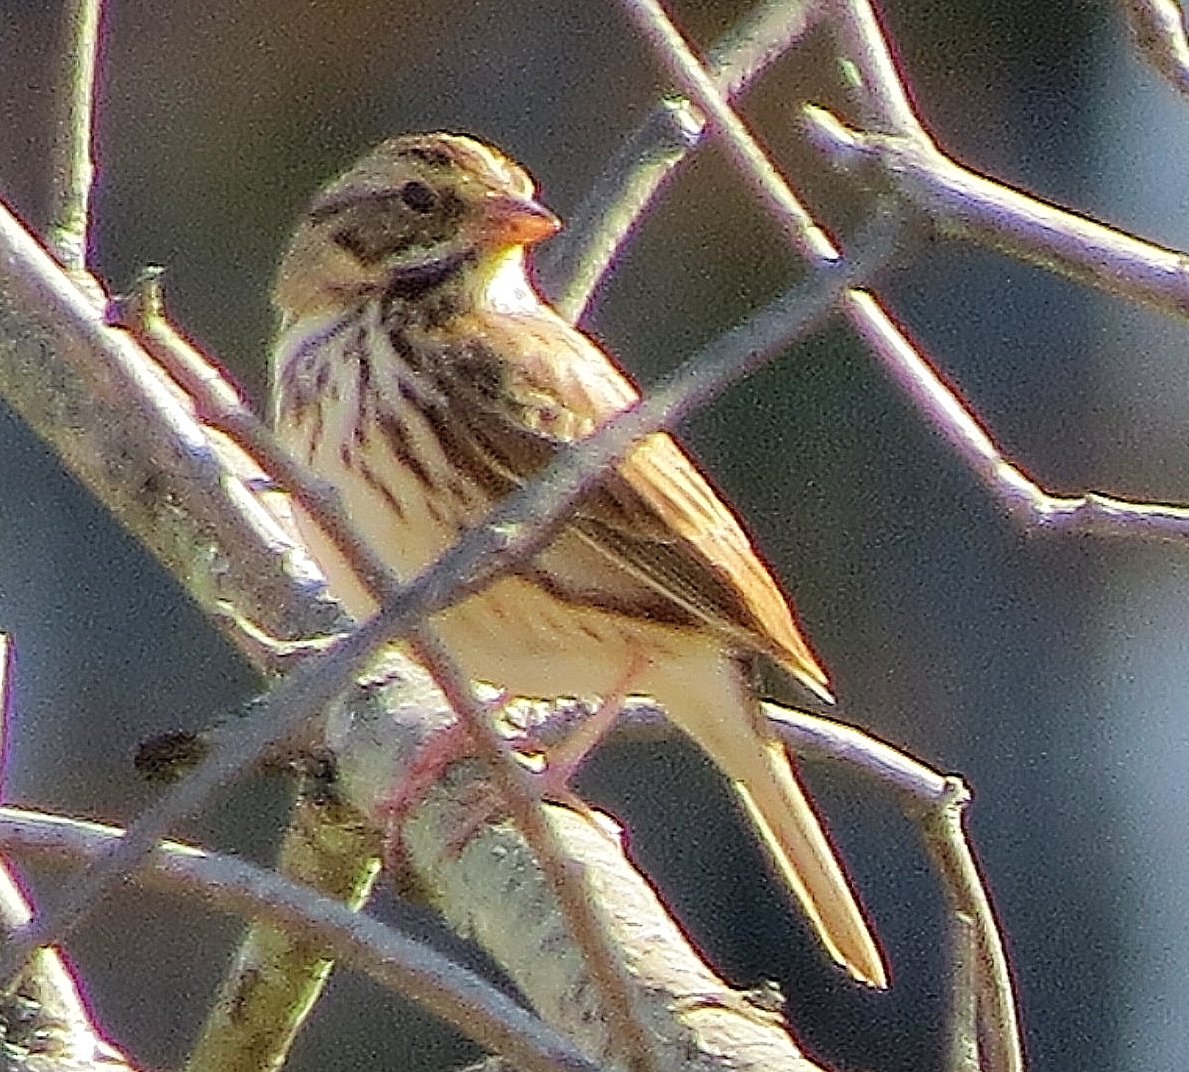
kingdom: Animalia
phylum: Chordata
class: Aves
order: Passeriformes
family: Passerellidae
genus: Passerculus
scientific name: Passerculus sandwichensis
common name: Savannah sparrow
